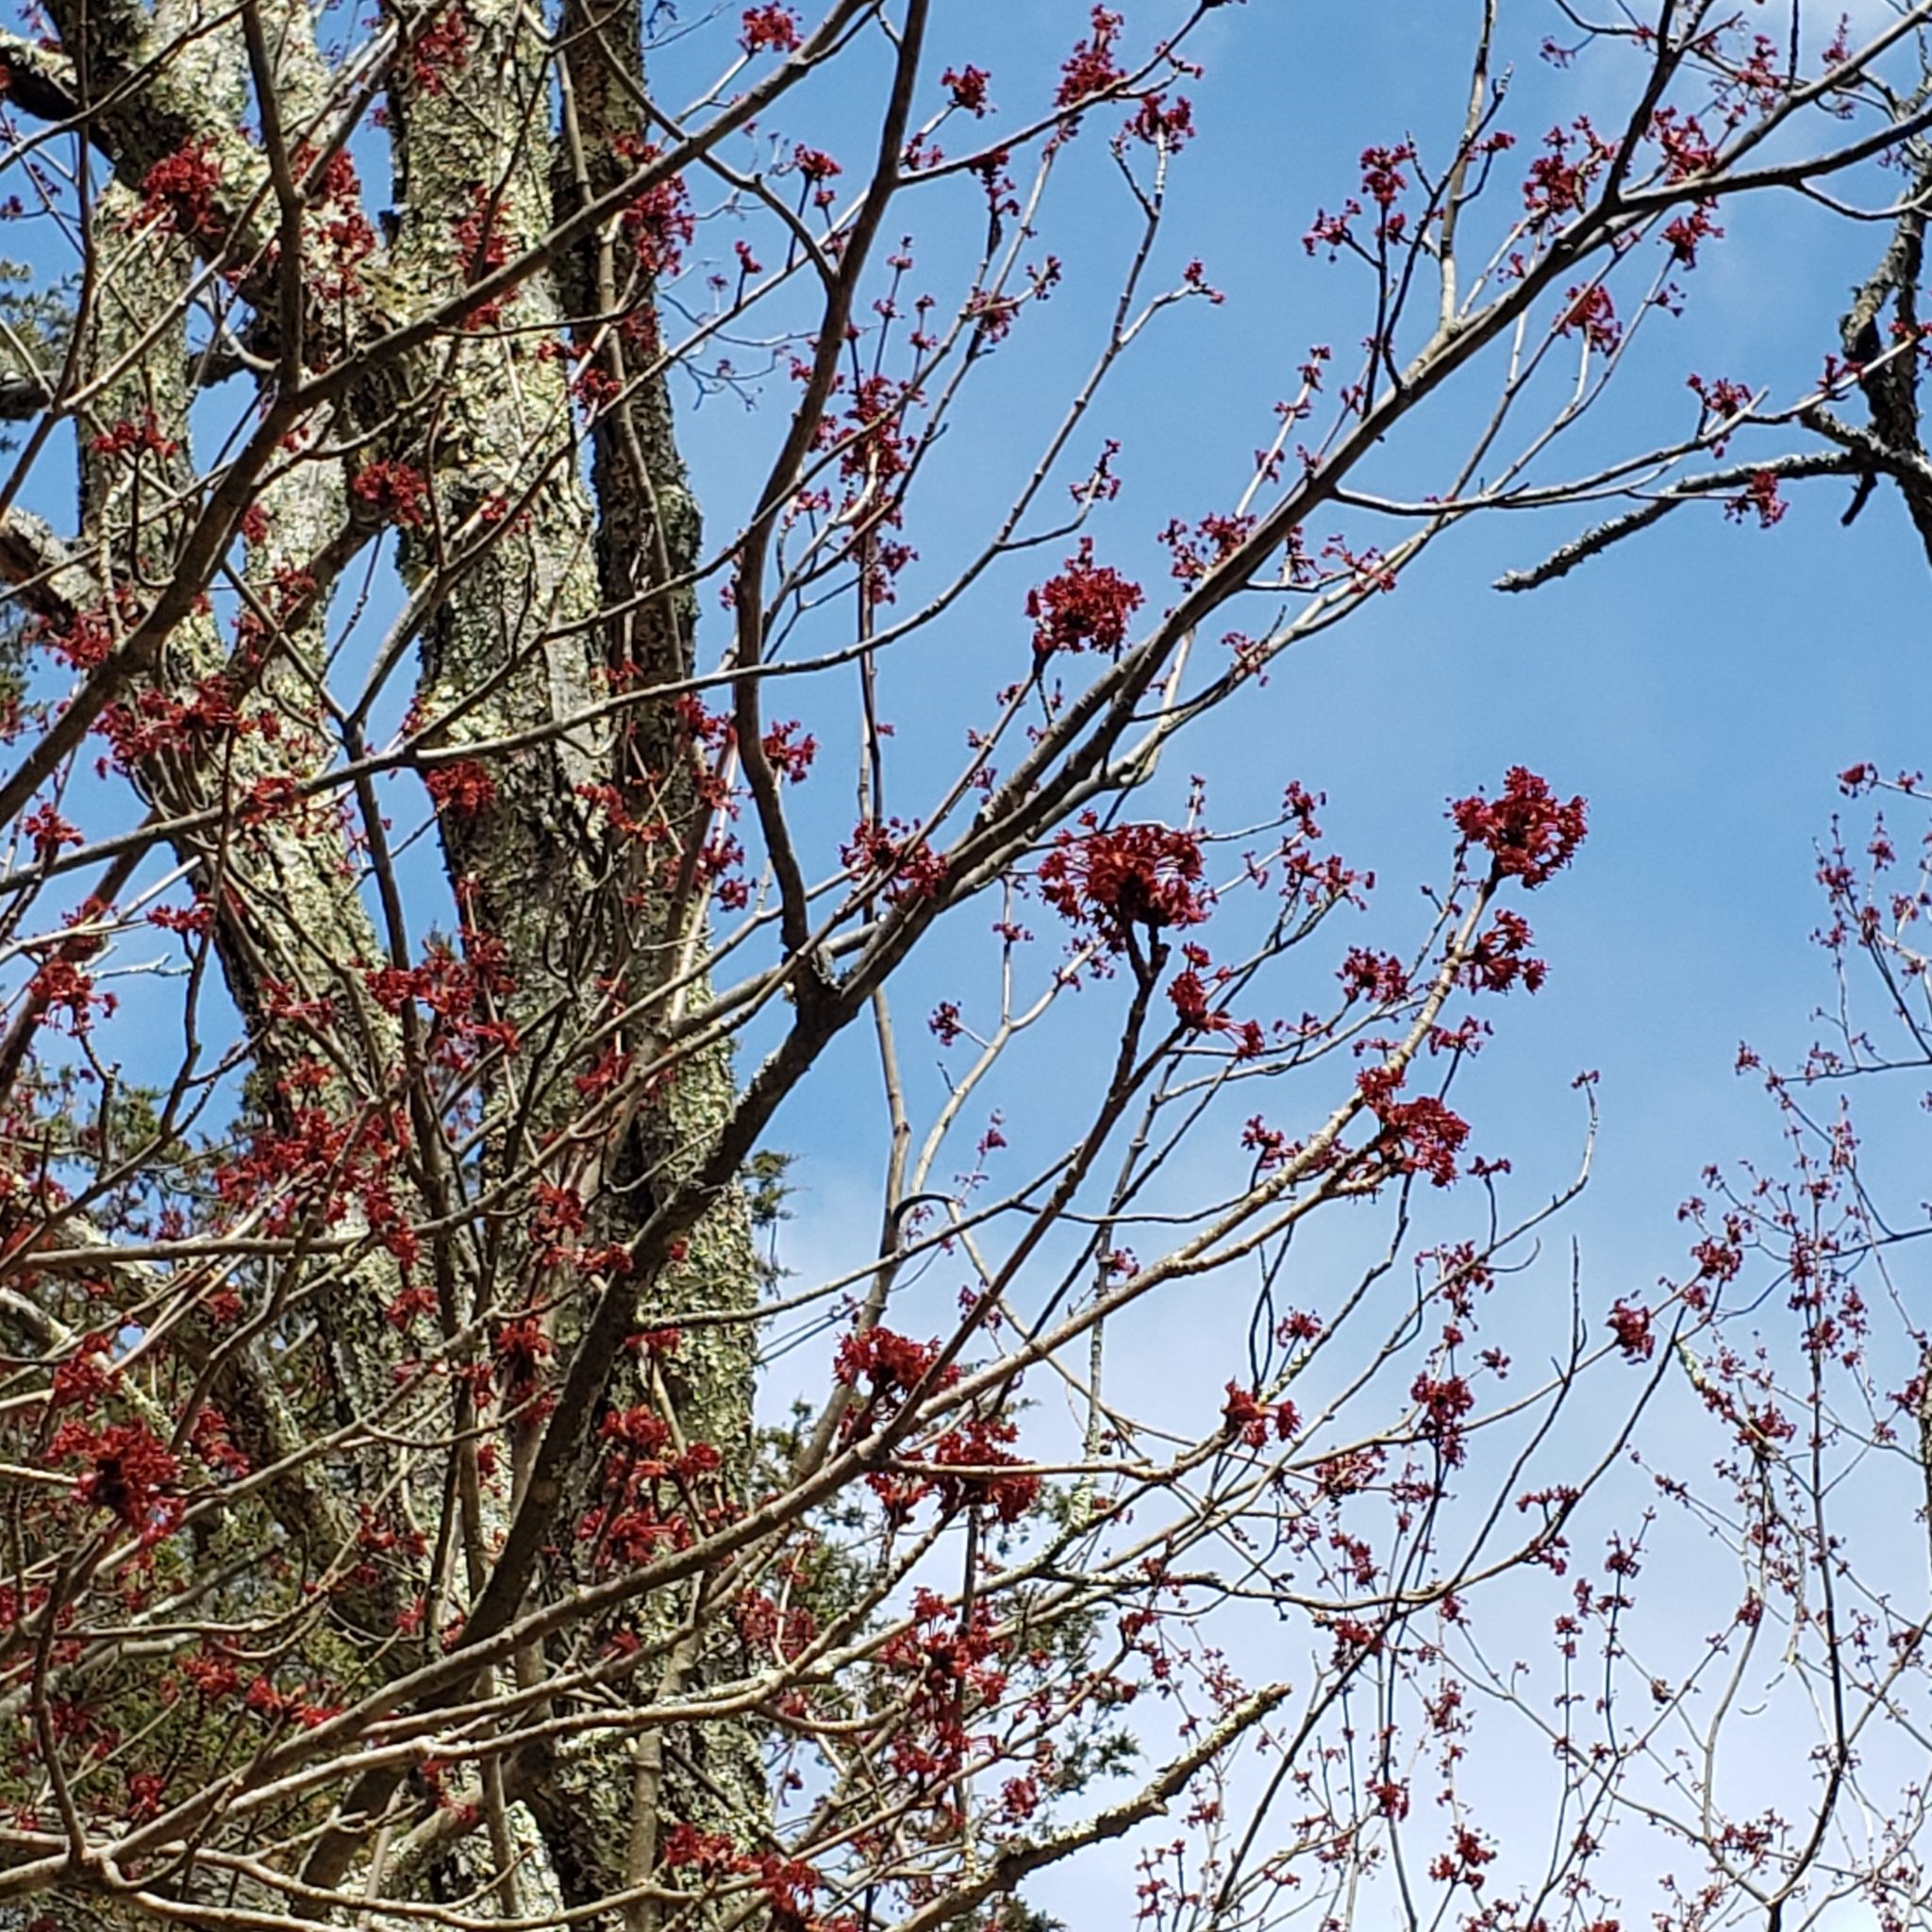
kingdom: Plantae
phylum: Tracheophyta
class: Magnoliopsida
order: Sapindales
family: Sapindaceae
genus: Acer
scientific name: Acer rubrum
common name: Red maple
